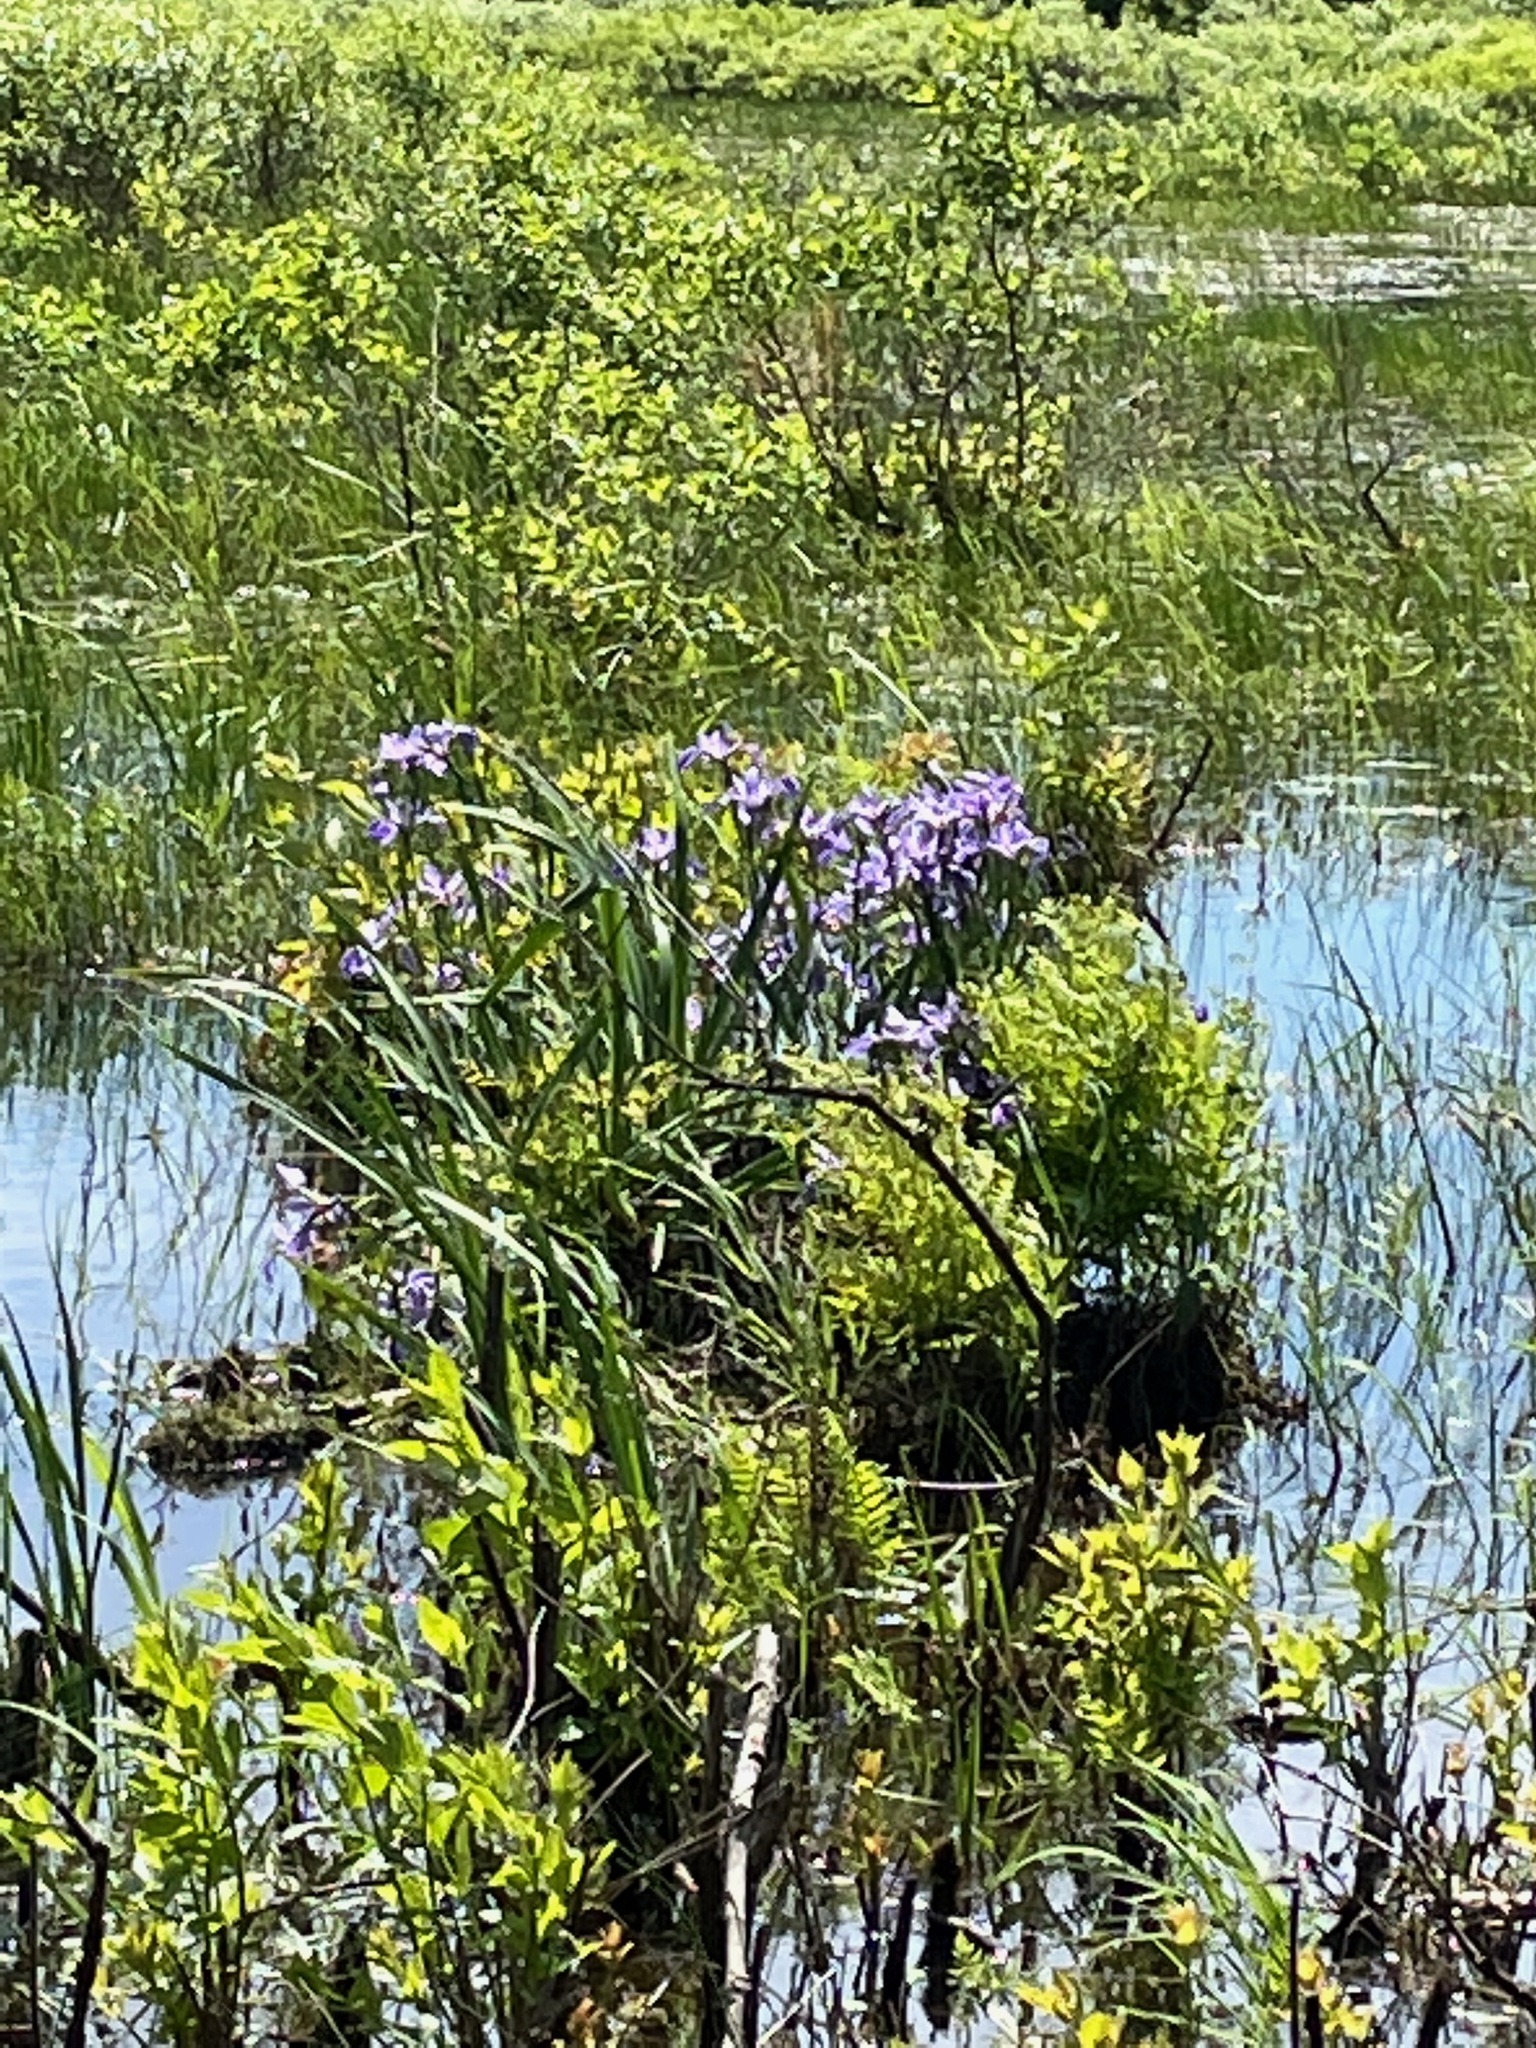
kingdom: Plantae
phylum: Tracheophyta
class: Liliopsida
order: Asparagales
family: Iridaceae
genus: Iris
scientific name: Iris versicolor
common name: Purple iris
